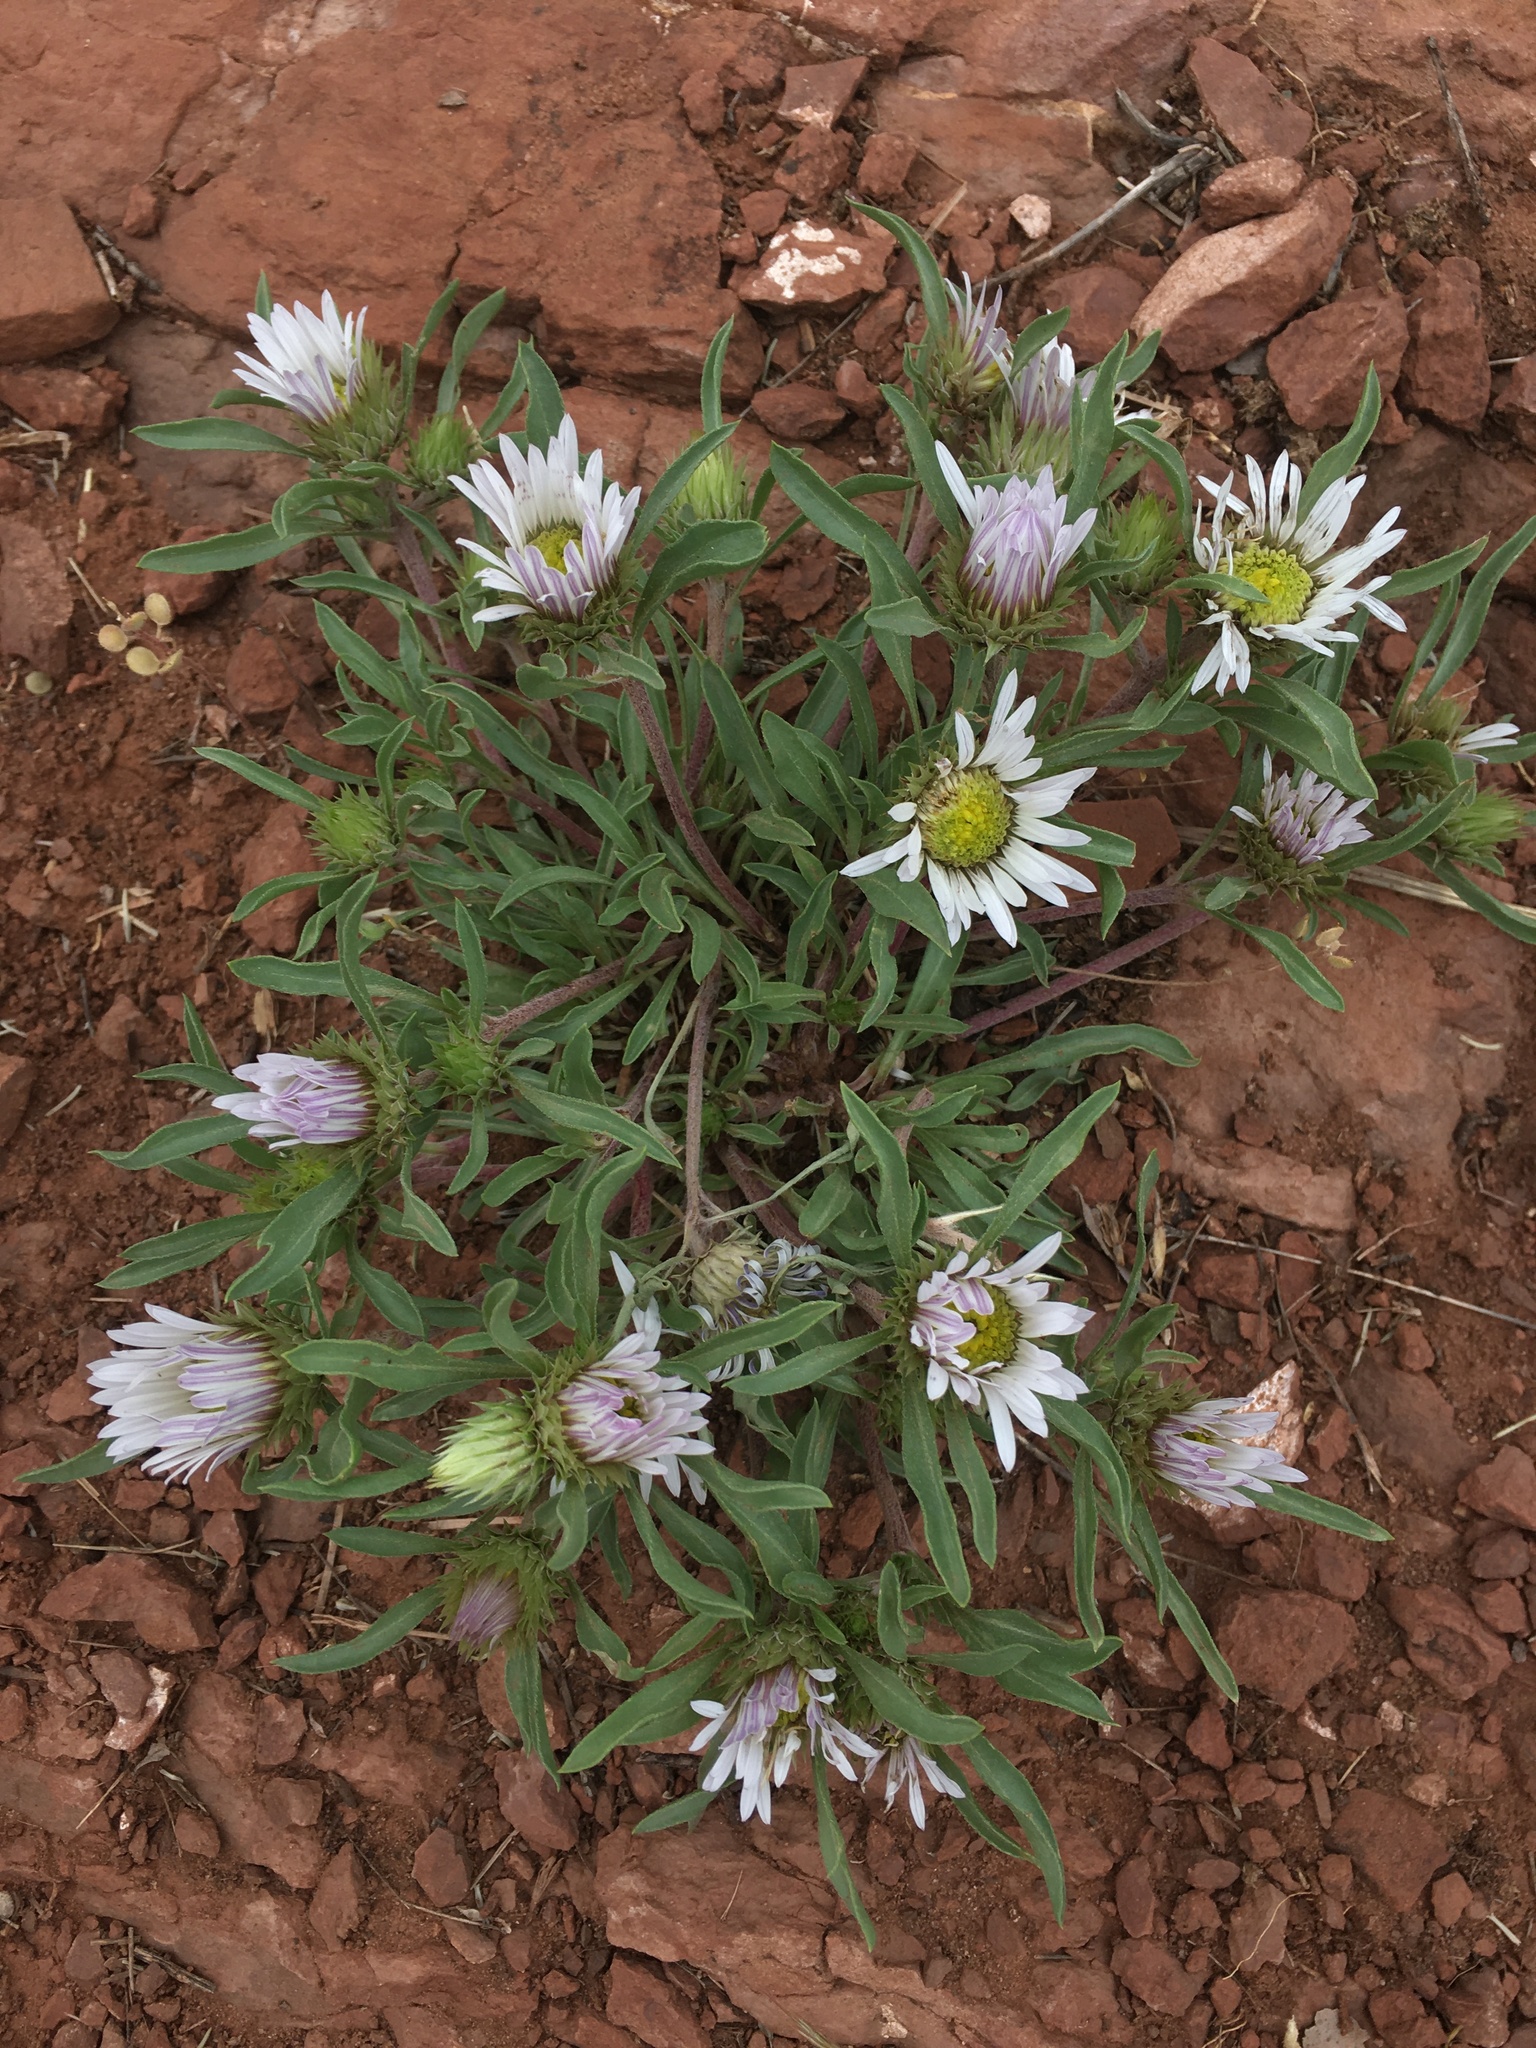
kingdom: Plantae
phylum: Tracheophyta
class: Magnoliopsida
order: Asterales
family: Asteraceae
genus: Townsendia
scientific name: Townsendia grandiflora
